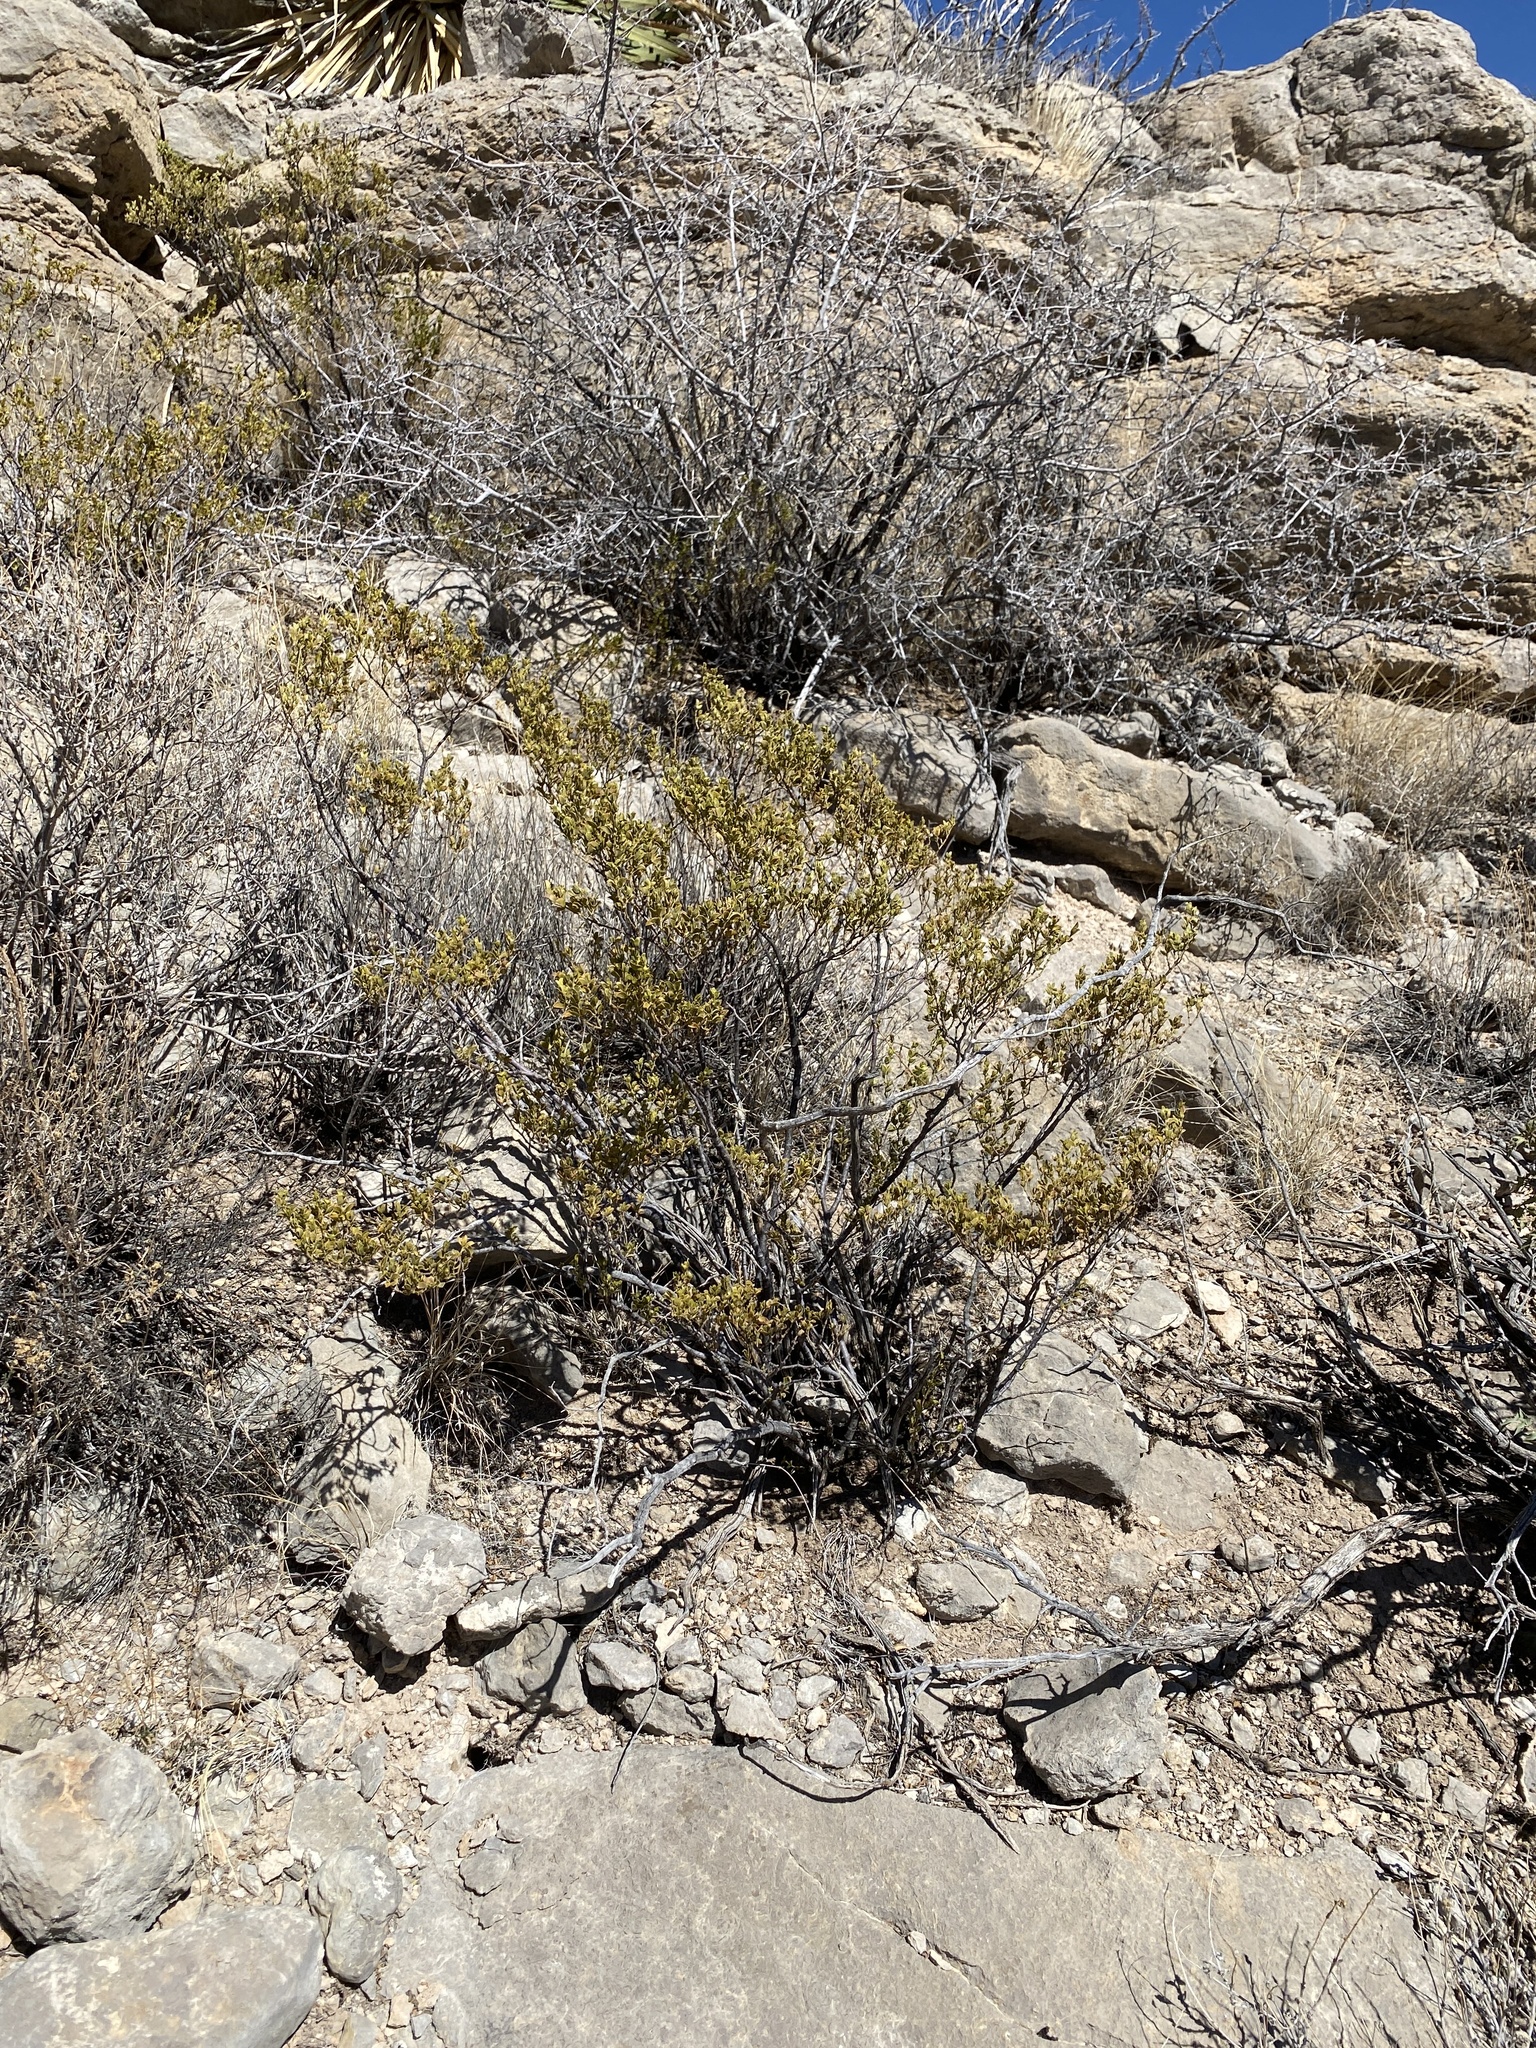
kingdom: Plantae
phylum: Tracheophyta
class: Magnoliopsida
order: Zygophyllales
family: Zygophyllaceae
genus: Larrea
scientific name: Larrea tridentata
